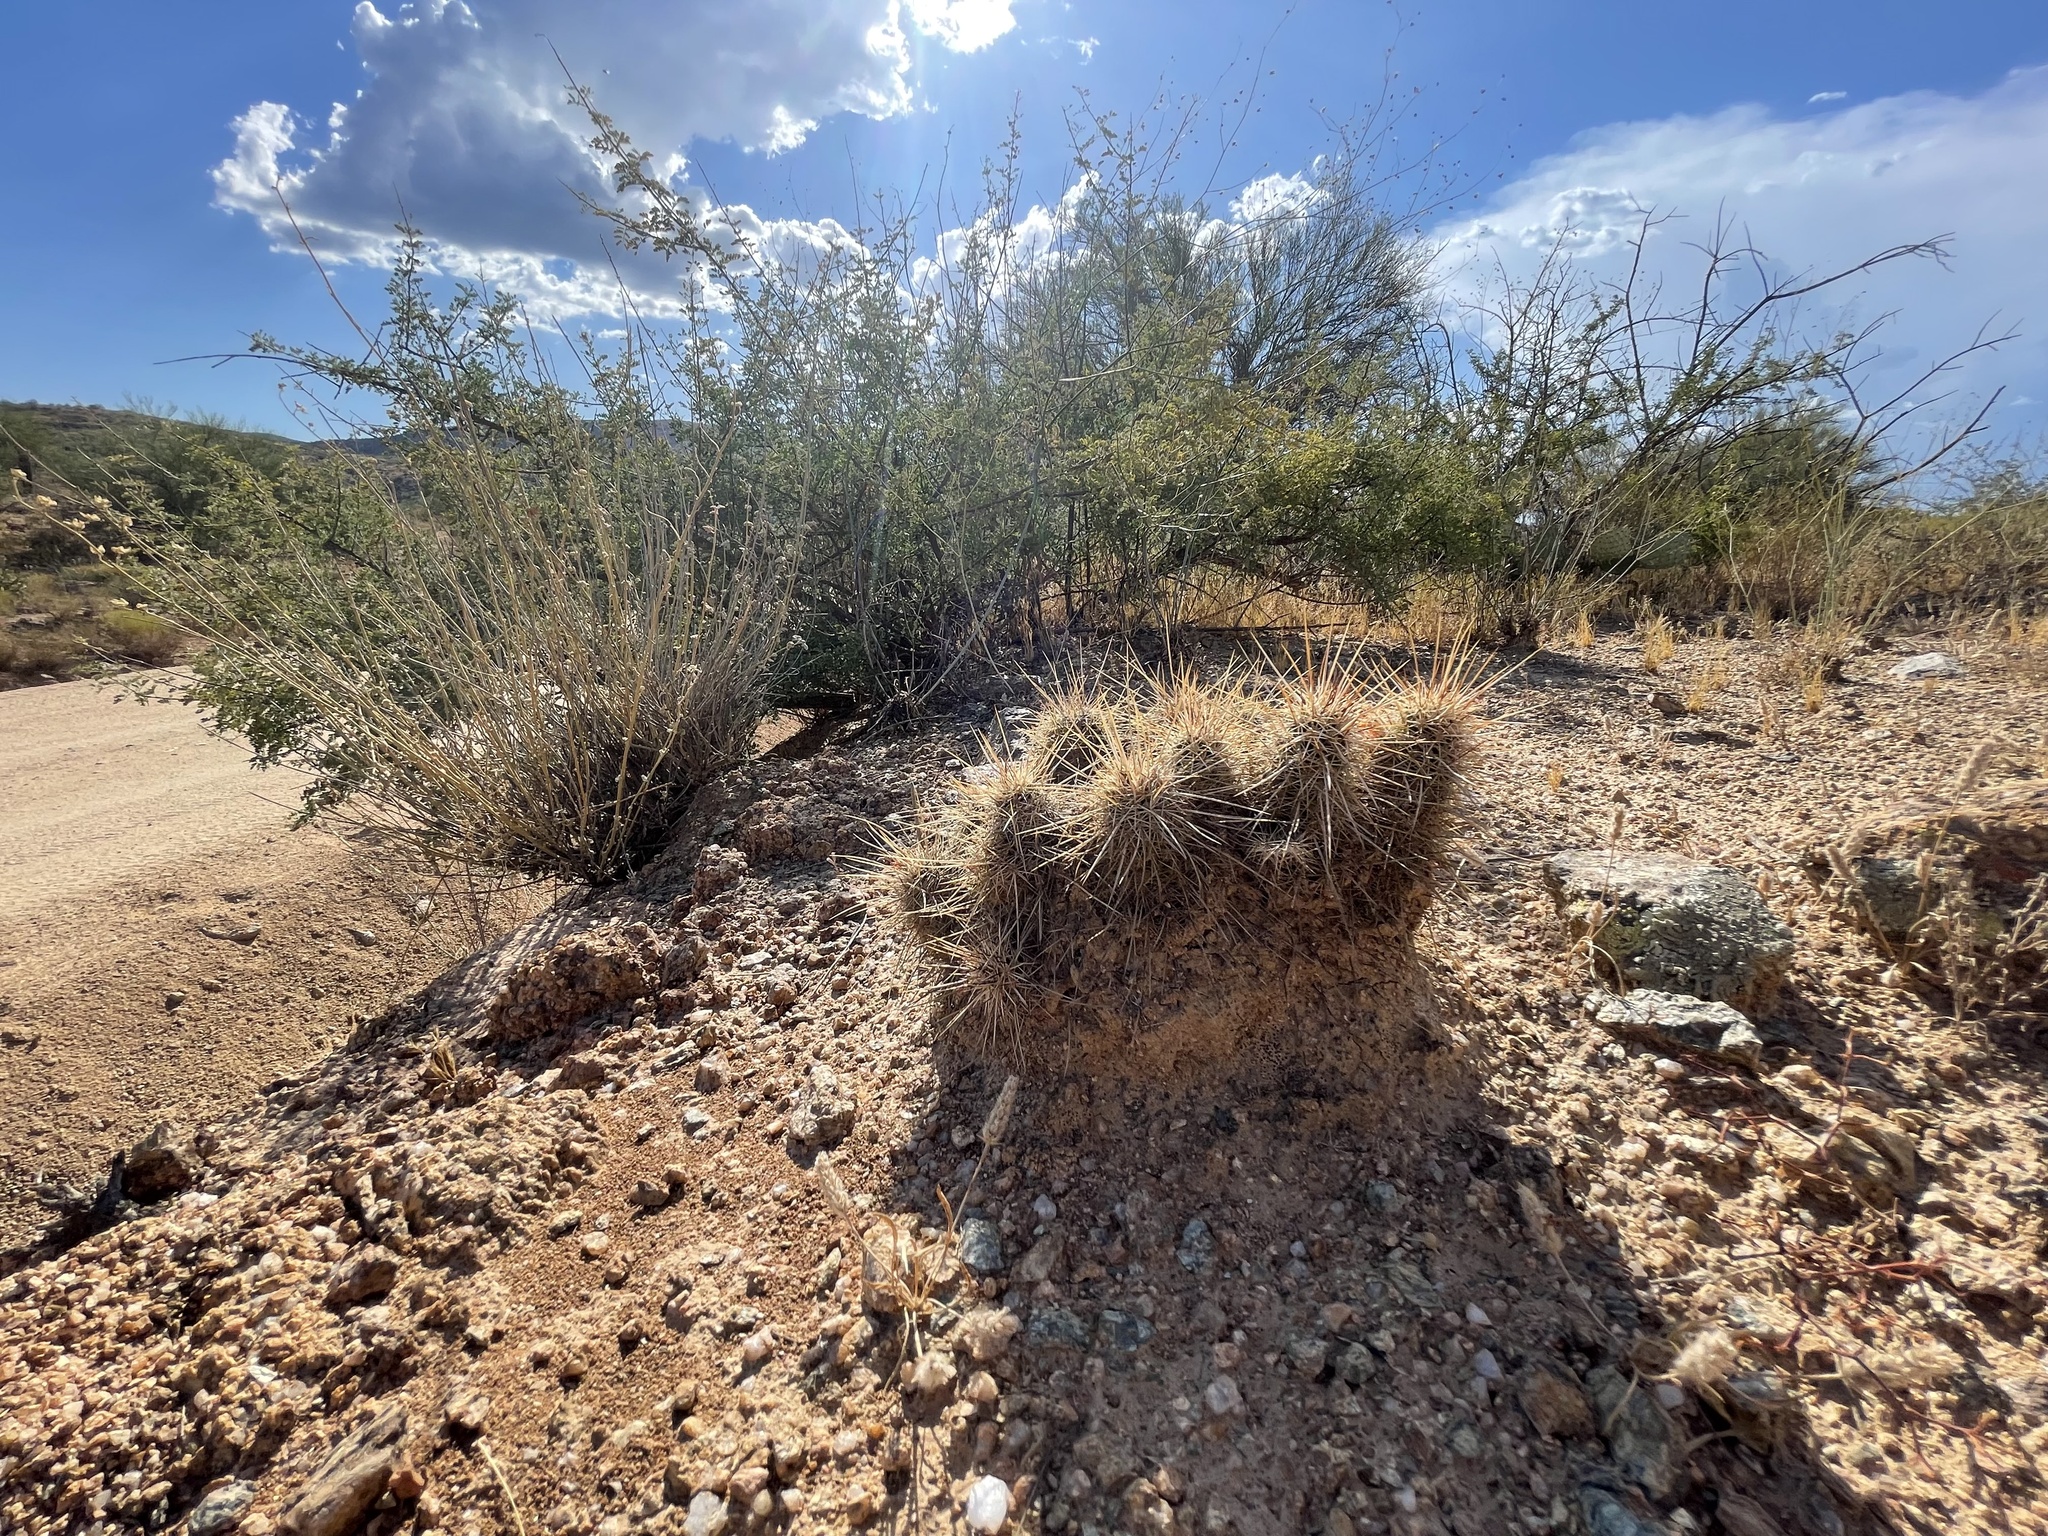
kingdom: Plantae
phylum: Tracheophyta
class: Magnoliopsida
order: Caryophyllales
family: Cactaceae
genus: Echinocereus
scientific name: Echinocereus engelmannii
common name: Engelmann's hedgehog cactus
